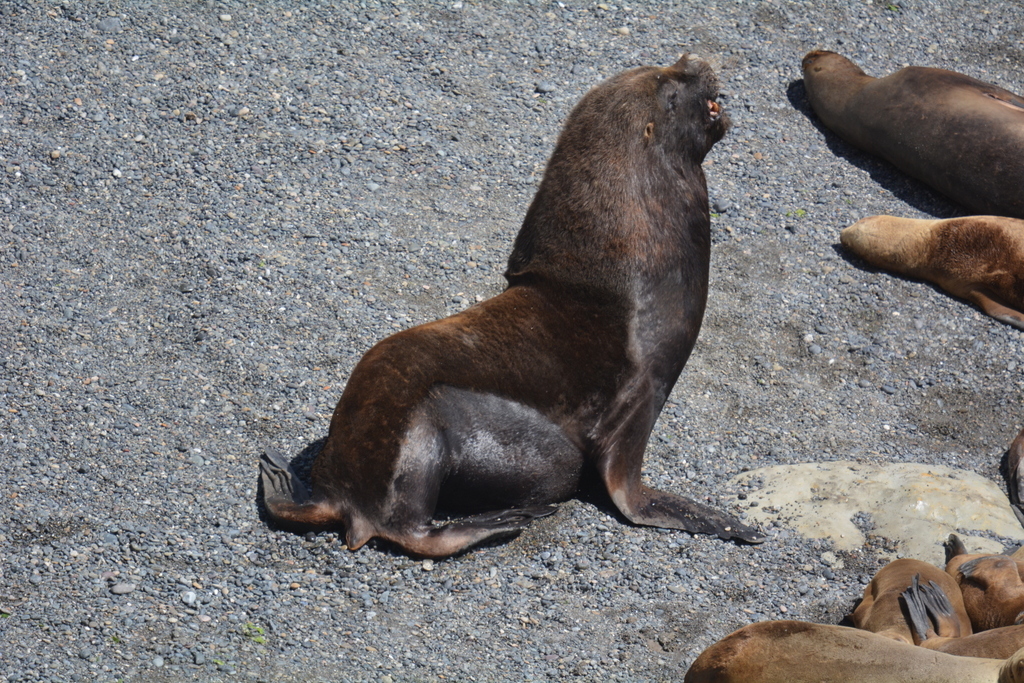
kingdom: Animalia
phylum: Chordata
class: Mammalia
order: Carnivora
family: Otariidae
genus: Otaria
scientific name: Otaria byronia
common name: South american sea lion
